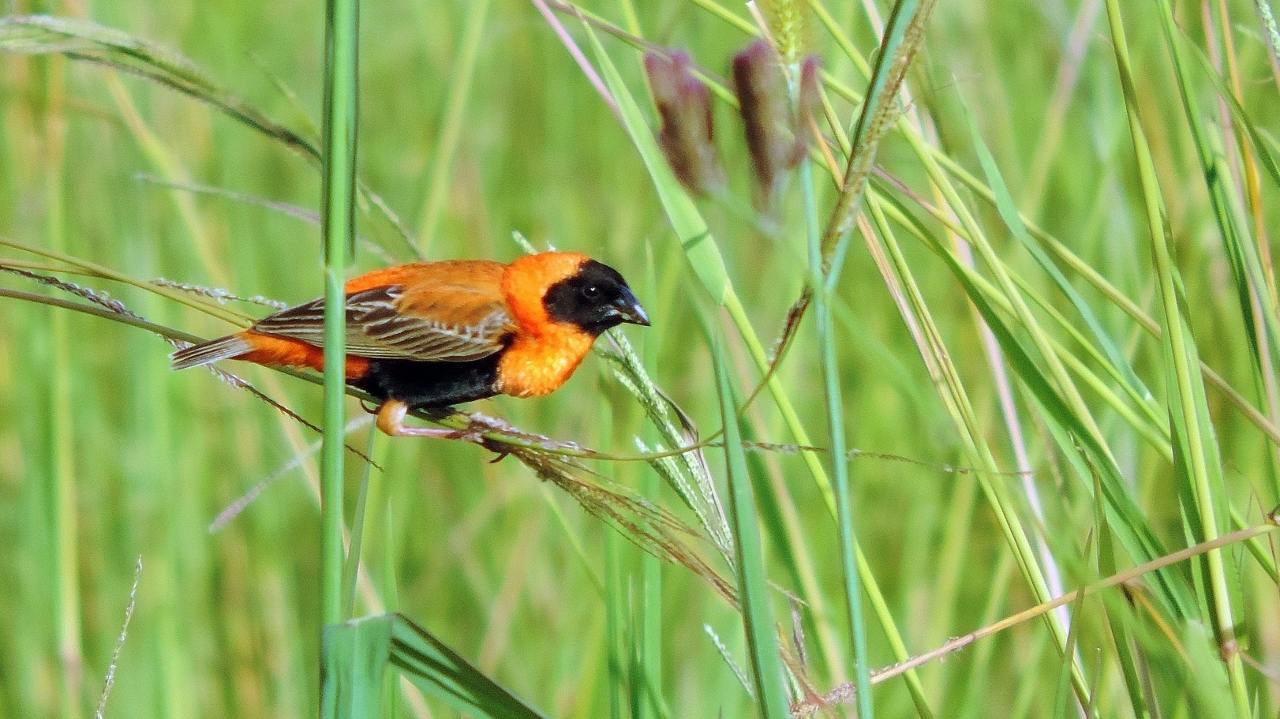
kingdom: Animalia
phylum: Chordata
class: Aves
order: Passeriformes
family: Ploceidae
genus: Euplectes
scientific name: Euplectes orix
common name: Southern red bishop
